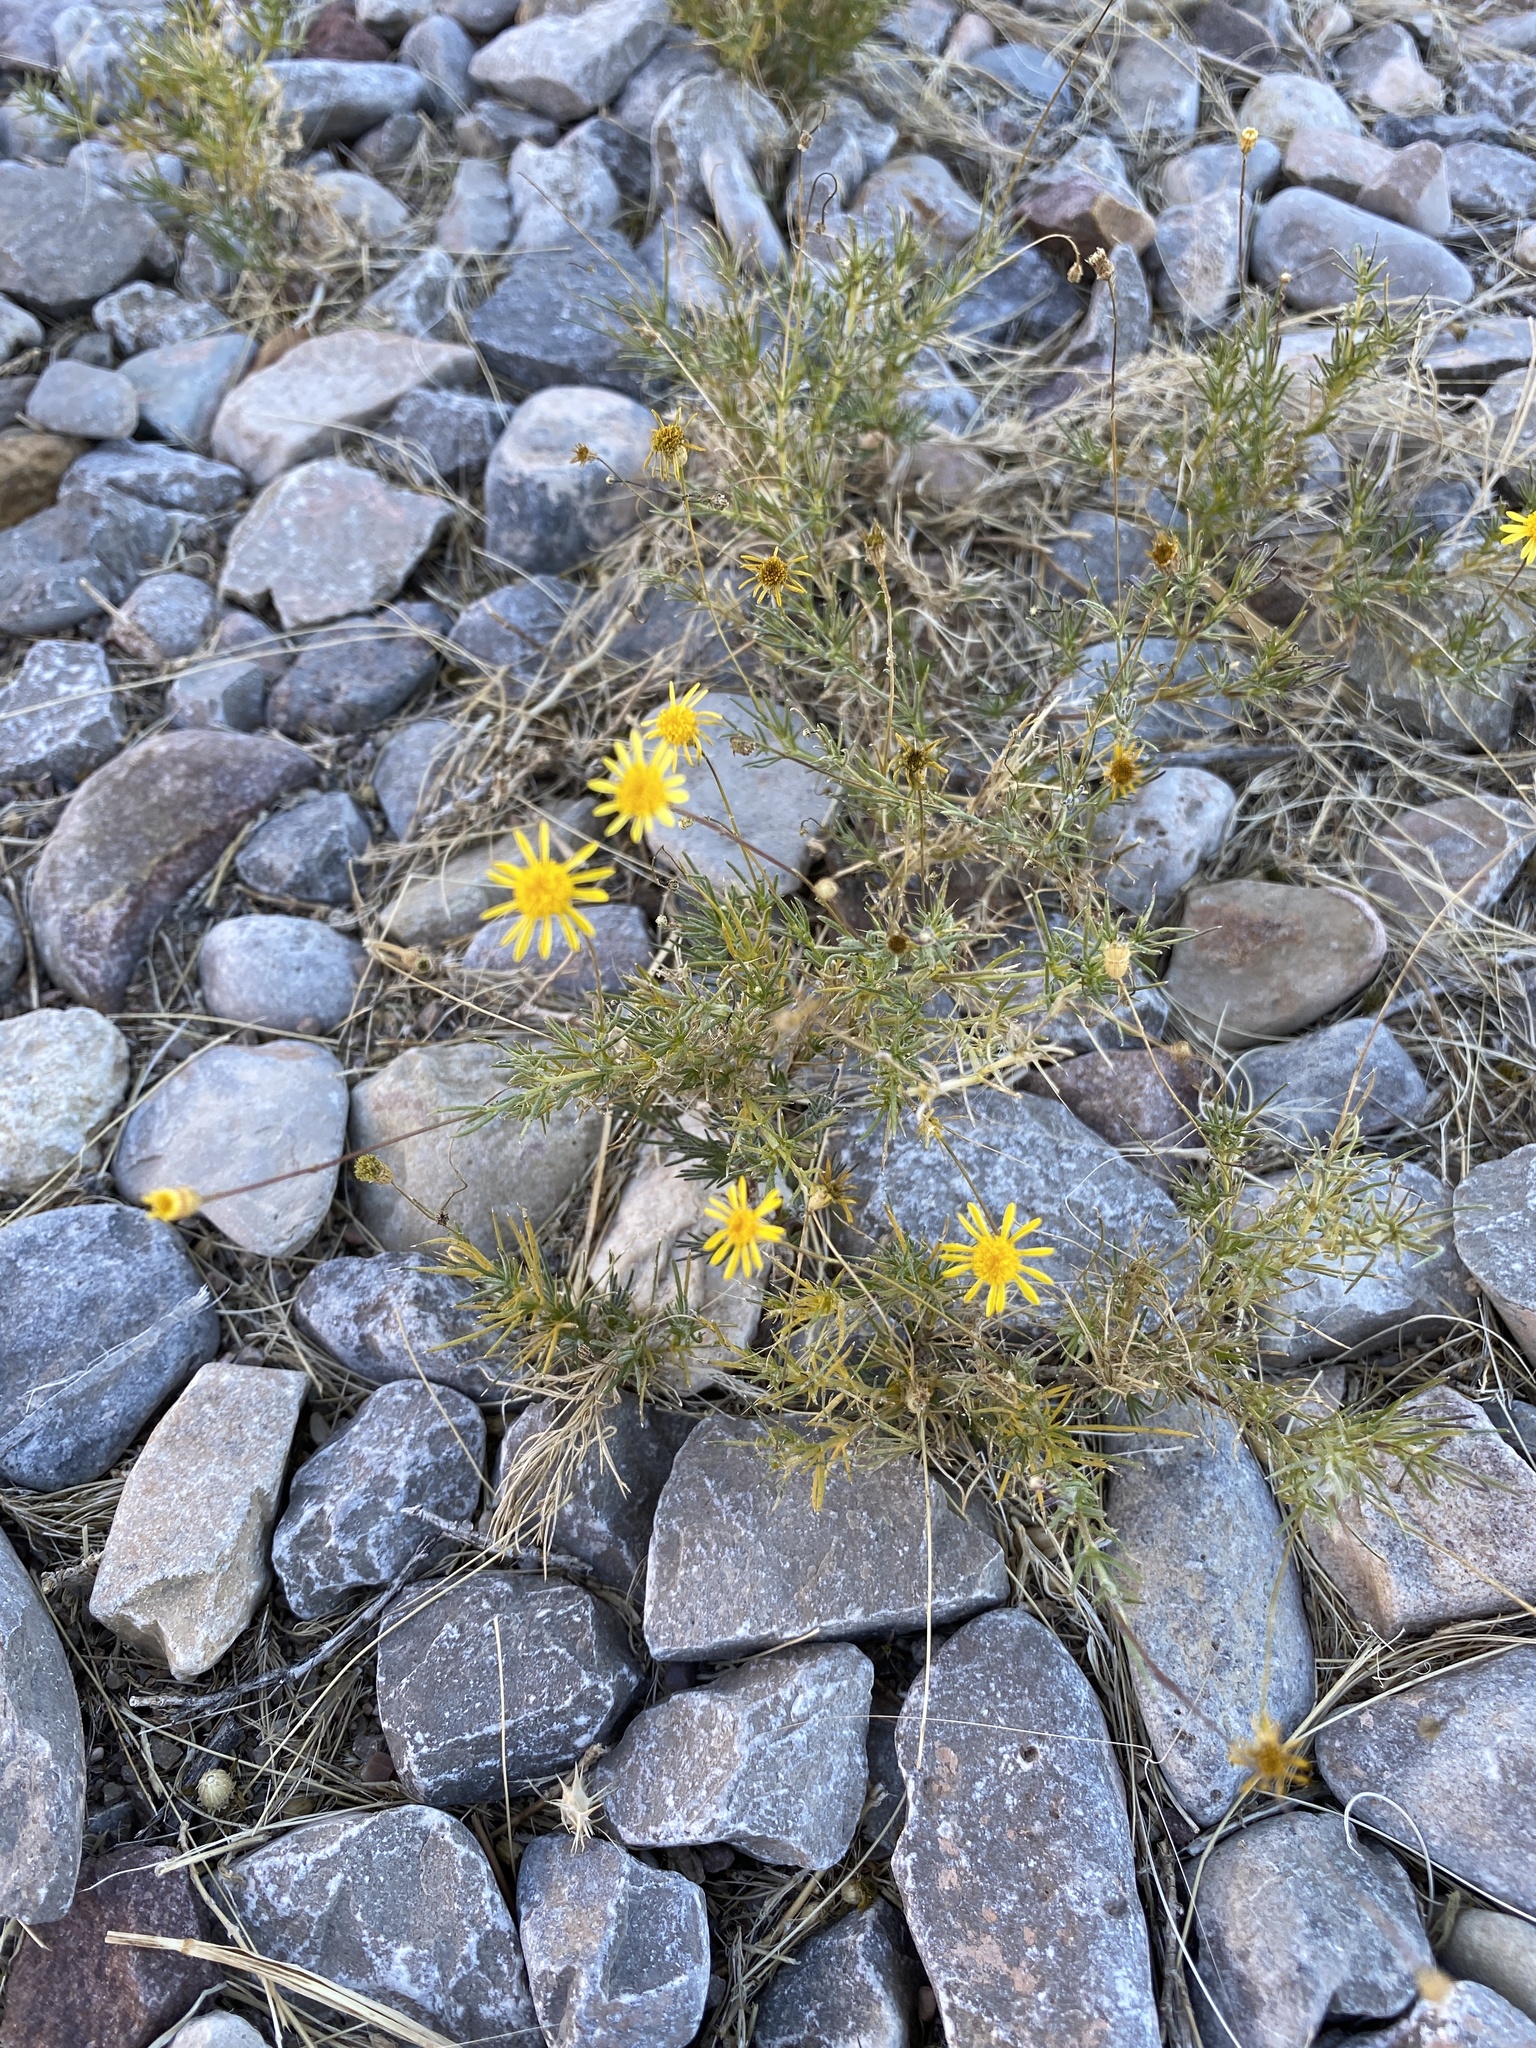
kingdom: Plantae
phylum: Tracheophyta
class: Magnoliopsida
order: Asterales
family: Asteraceae
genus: Thymophylla
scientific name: Thymophylla pentachaeta
